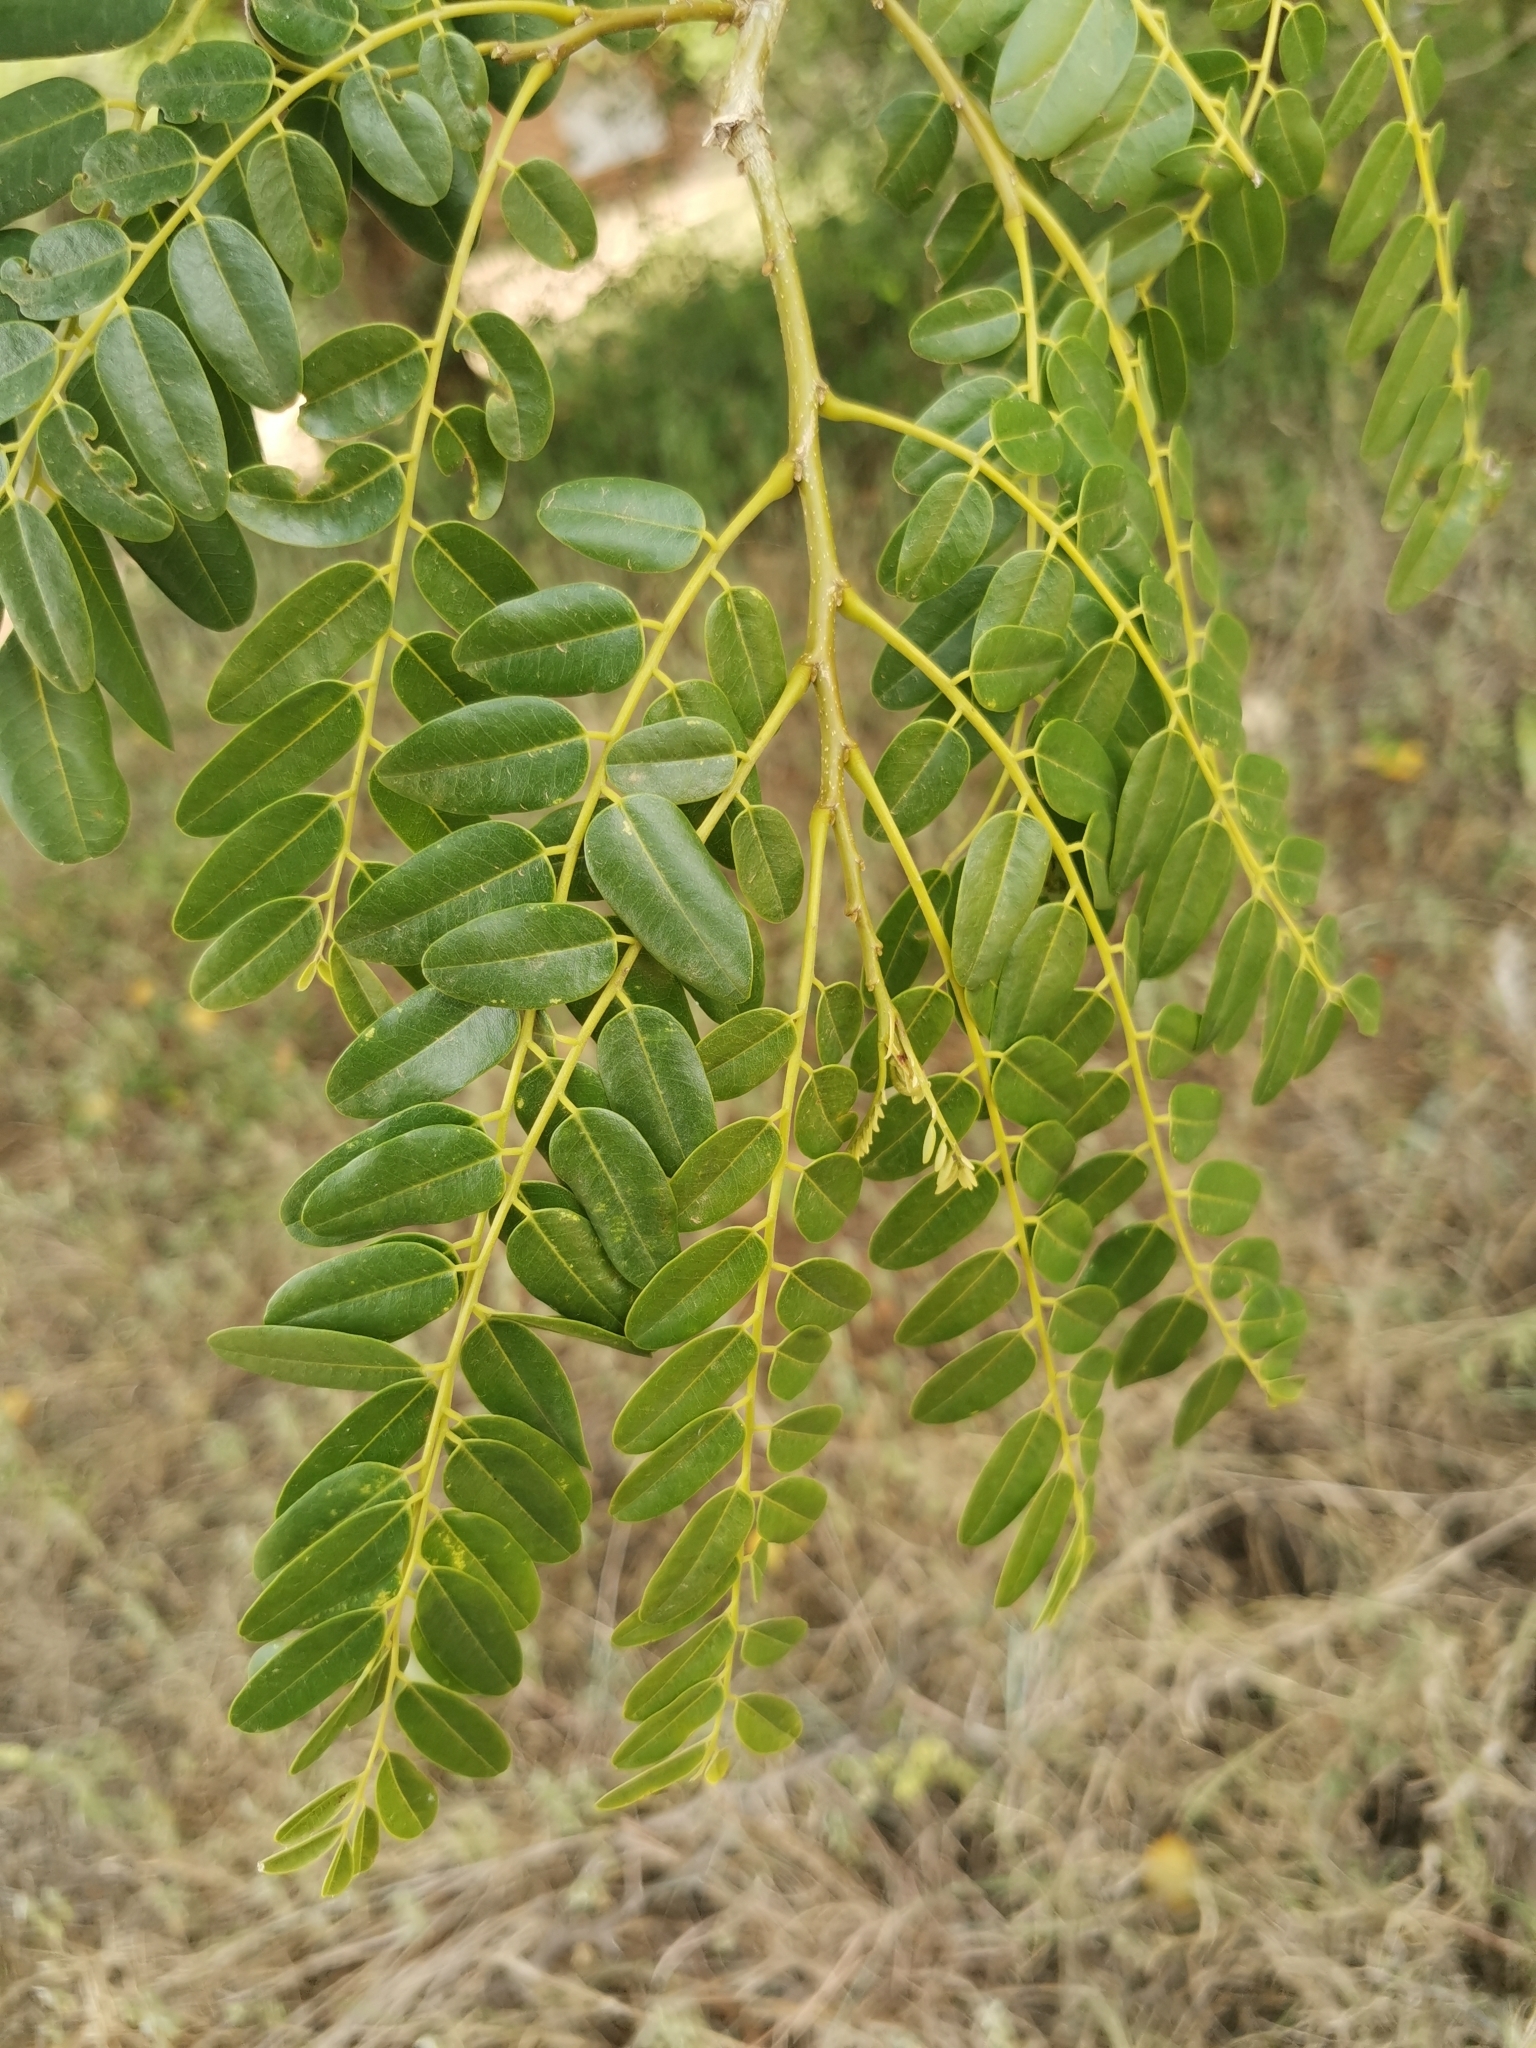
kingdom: Plantae
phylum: Tracheophyta
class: Magnoliopsida
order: Fabales
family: Fabaceae
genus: Cordyla
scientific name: Cordyla africana
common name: Wild mango
